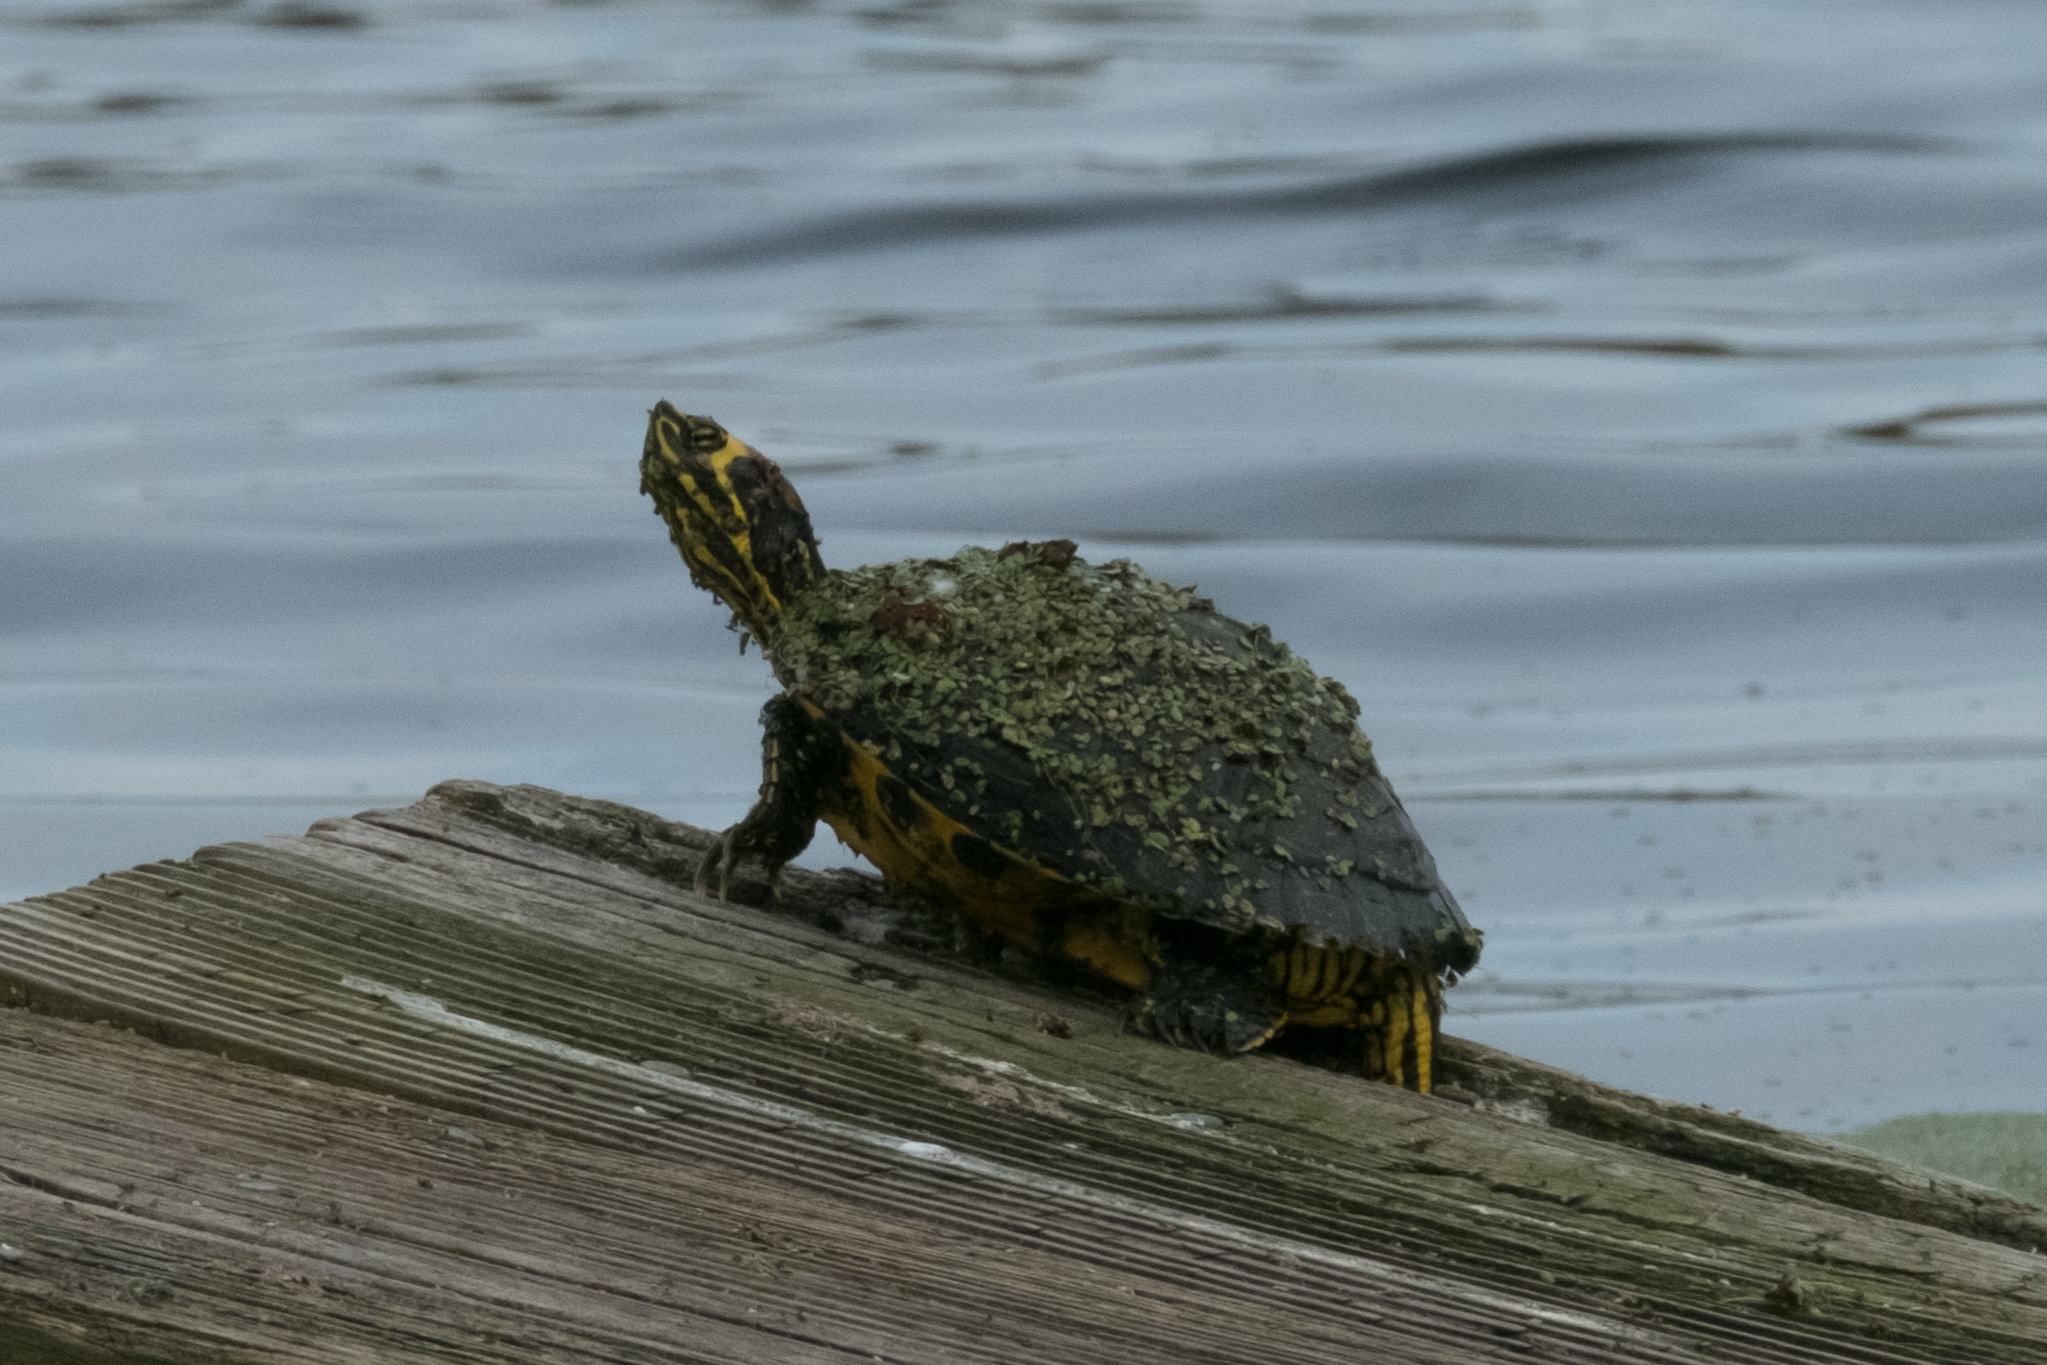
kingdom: Animalia
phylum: Chordata
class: Testudines
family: Emydidae
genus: Trachemys
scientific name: Trachemys scripta
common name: Slider
